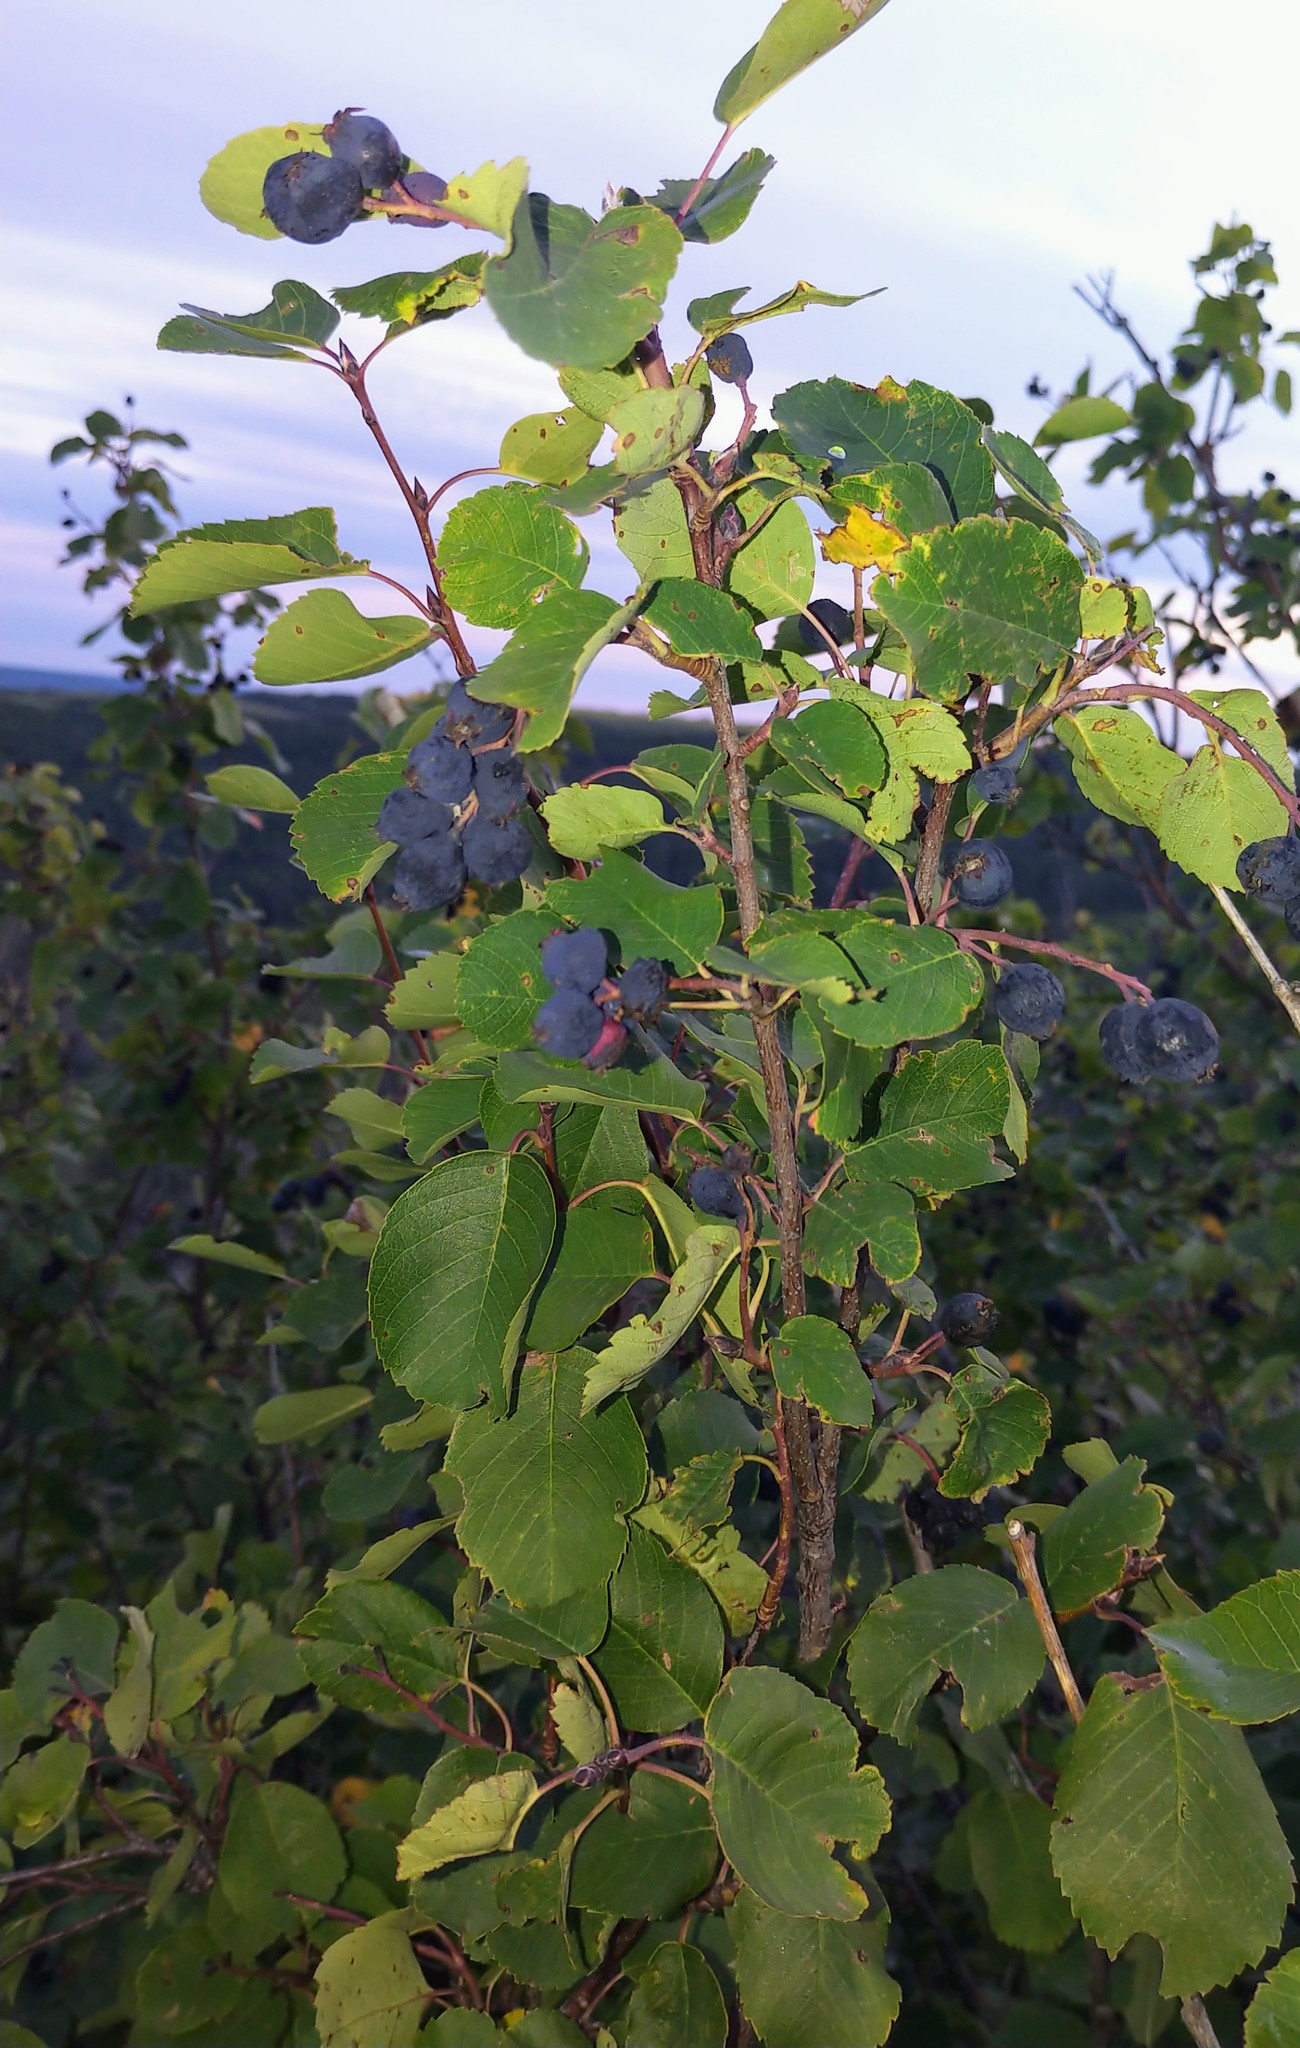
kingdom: Plantae
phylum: Tracheophyta
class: Magnoliopsida
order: Rosales
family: Rosaceae
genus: Amelanchier
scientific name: Amelanchier alnifolia
